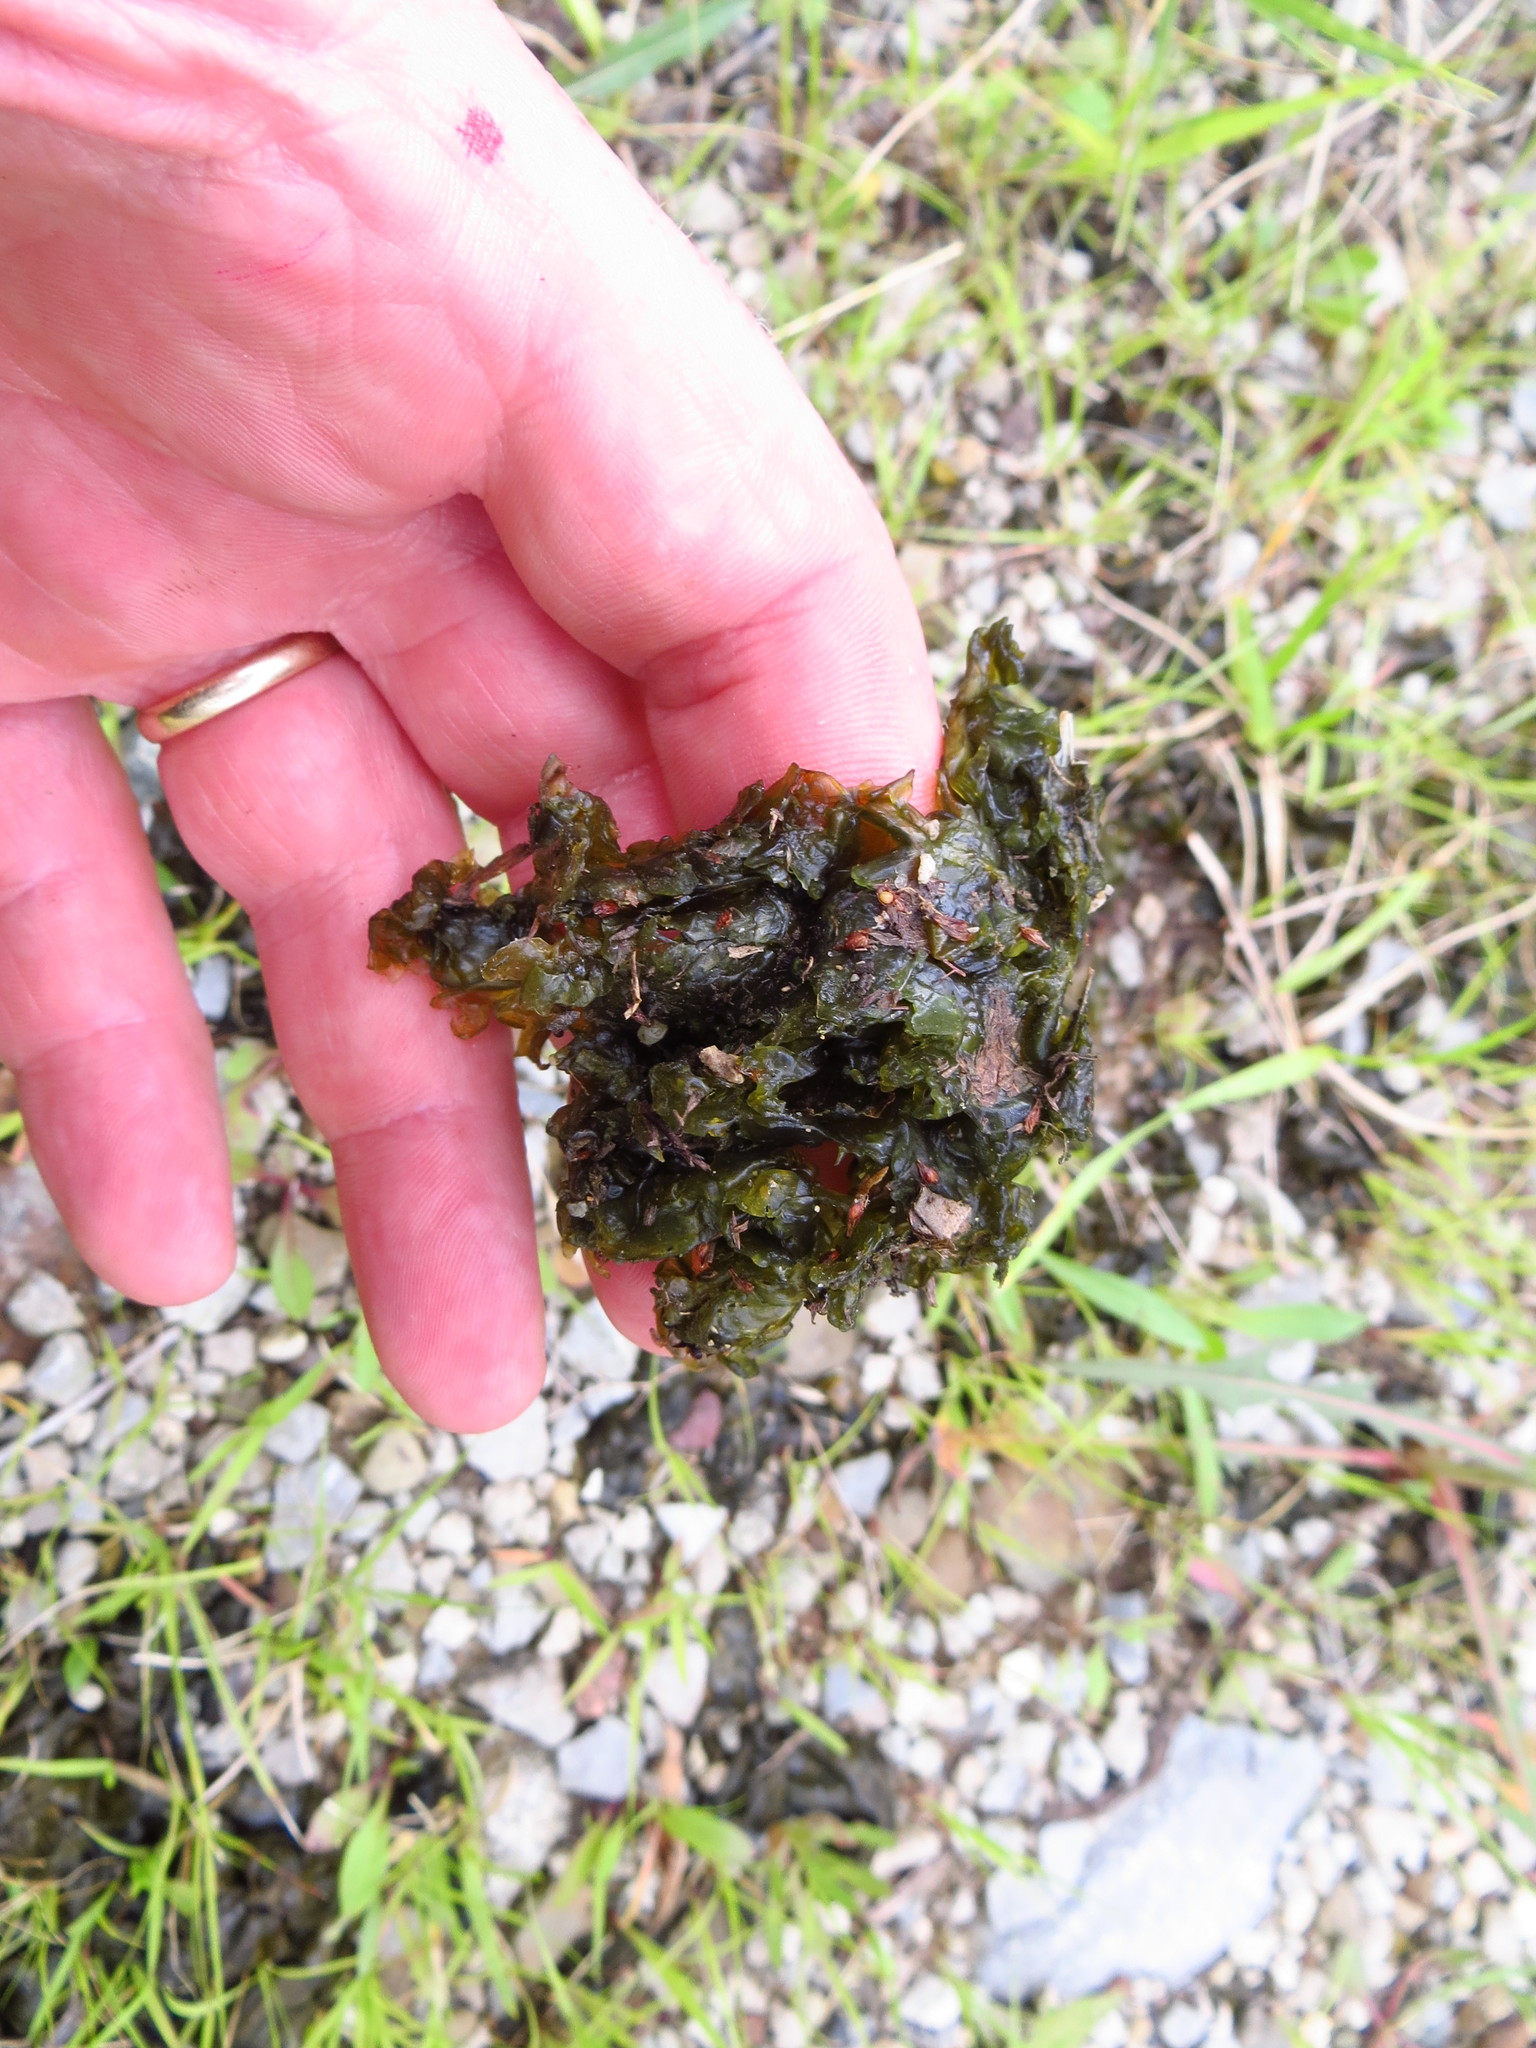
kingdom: Bacteria
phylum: Cyanobacteria
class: Cyanobacteriia
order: Cyanobacteriales
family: Nostocaceae
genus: Nostoc
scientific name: Nostoc commune
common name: Star jelly
